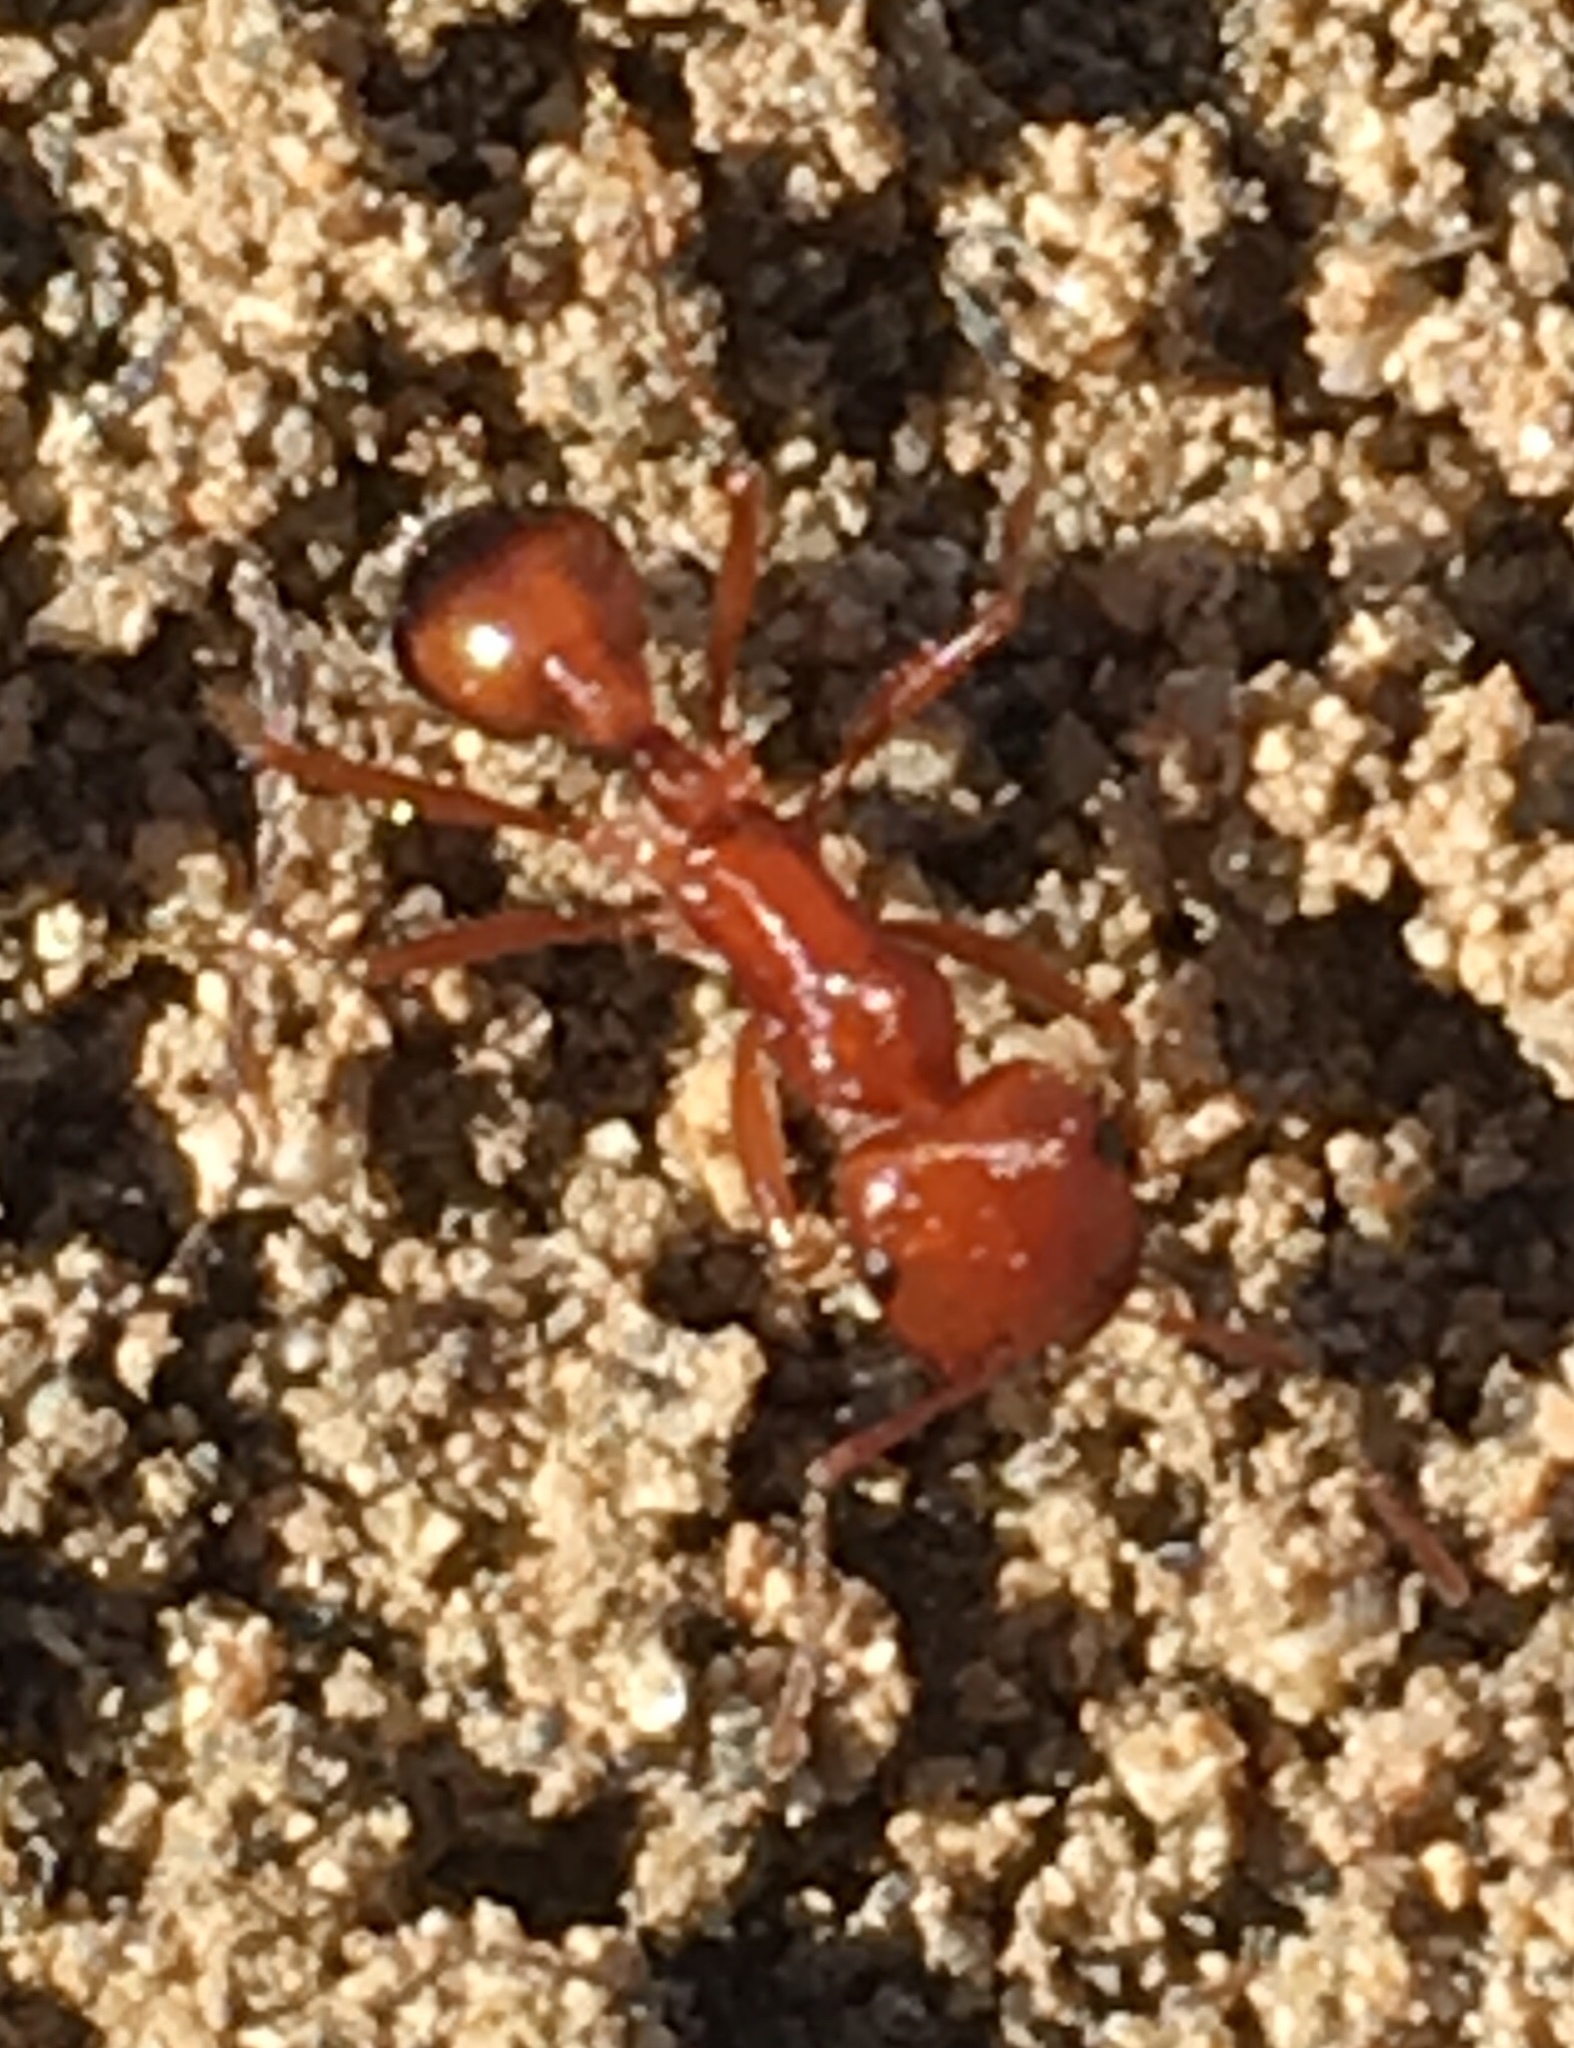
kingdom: Animalia
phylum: Arthropoda
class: Insecta
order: Hymenoptera
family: Formicidae
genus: Pogonomyrmex
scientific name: Pogonomyrmex californicus
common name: California harvester ant
